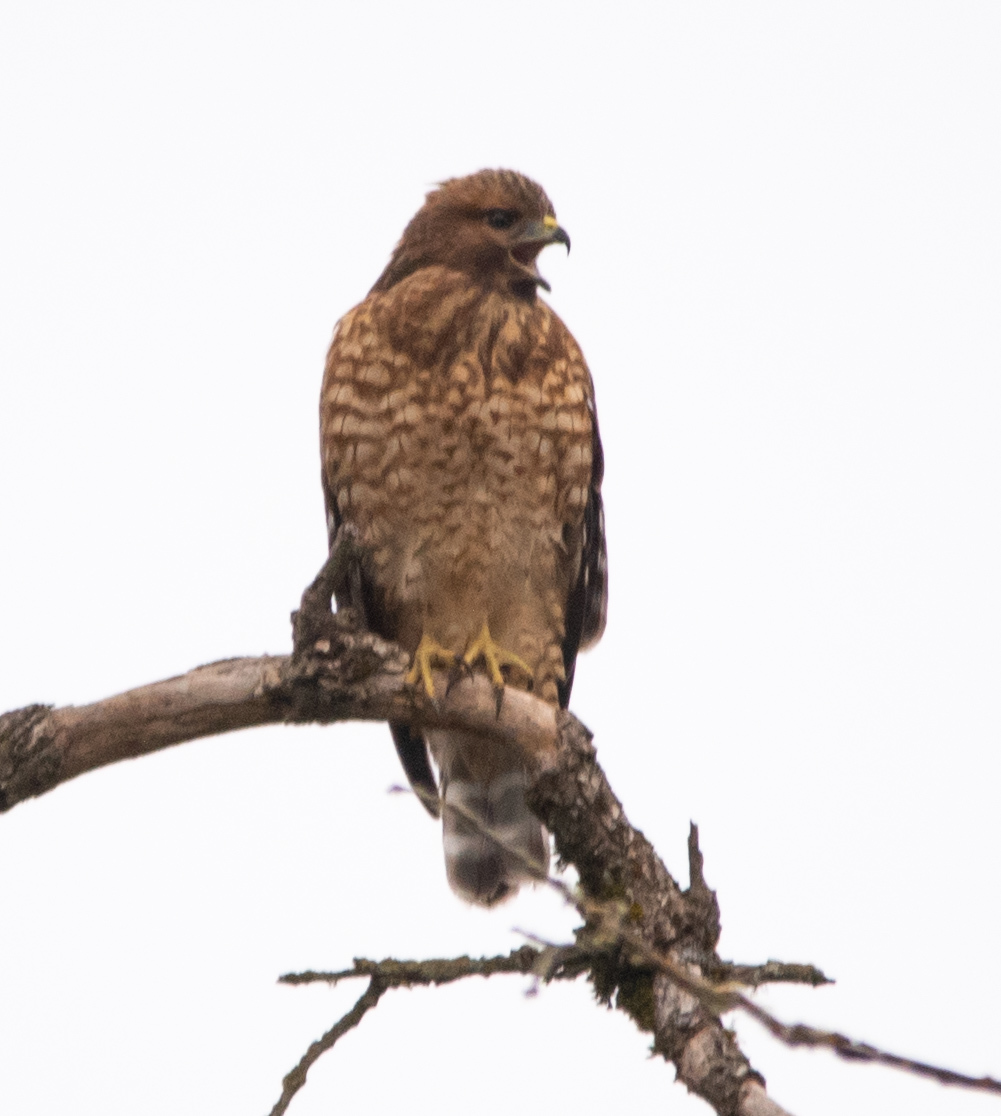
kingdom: Animalia
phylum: Chordata
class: Aves
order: Accipitriformes
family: Accipitridae
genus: Buteo
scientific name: Buteo lineatus
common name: Red-shouldered hawk
